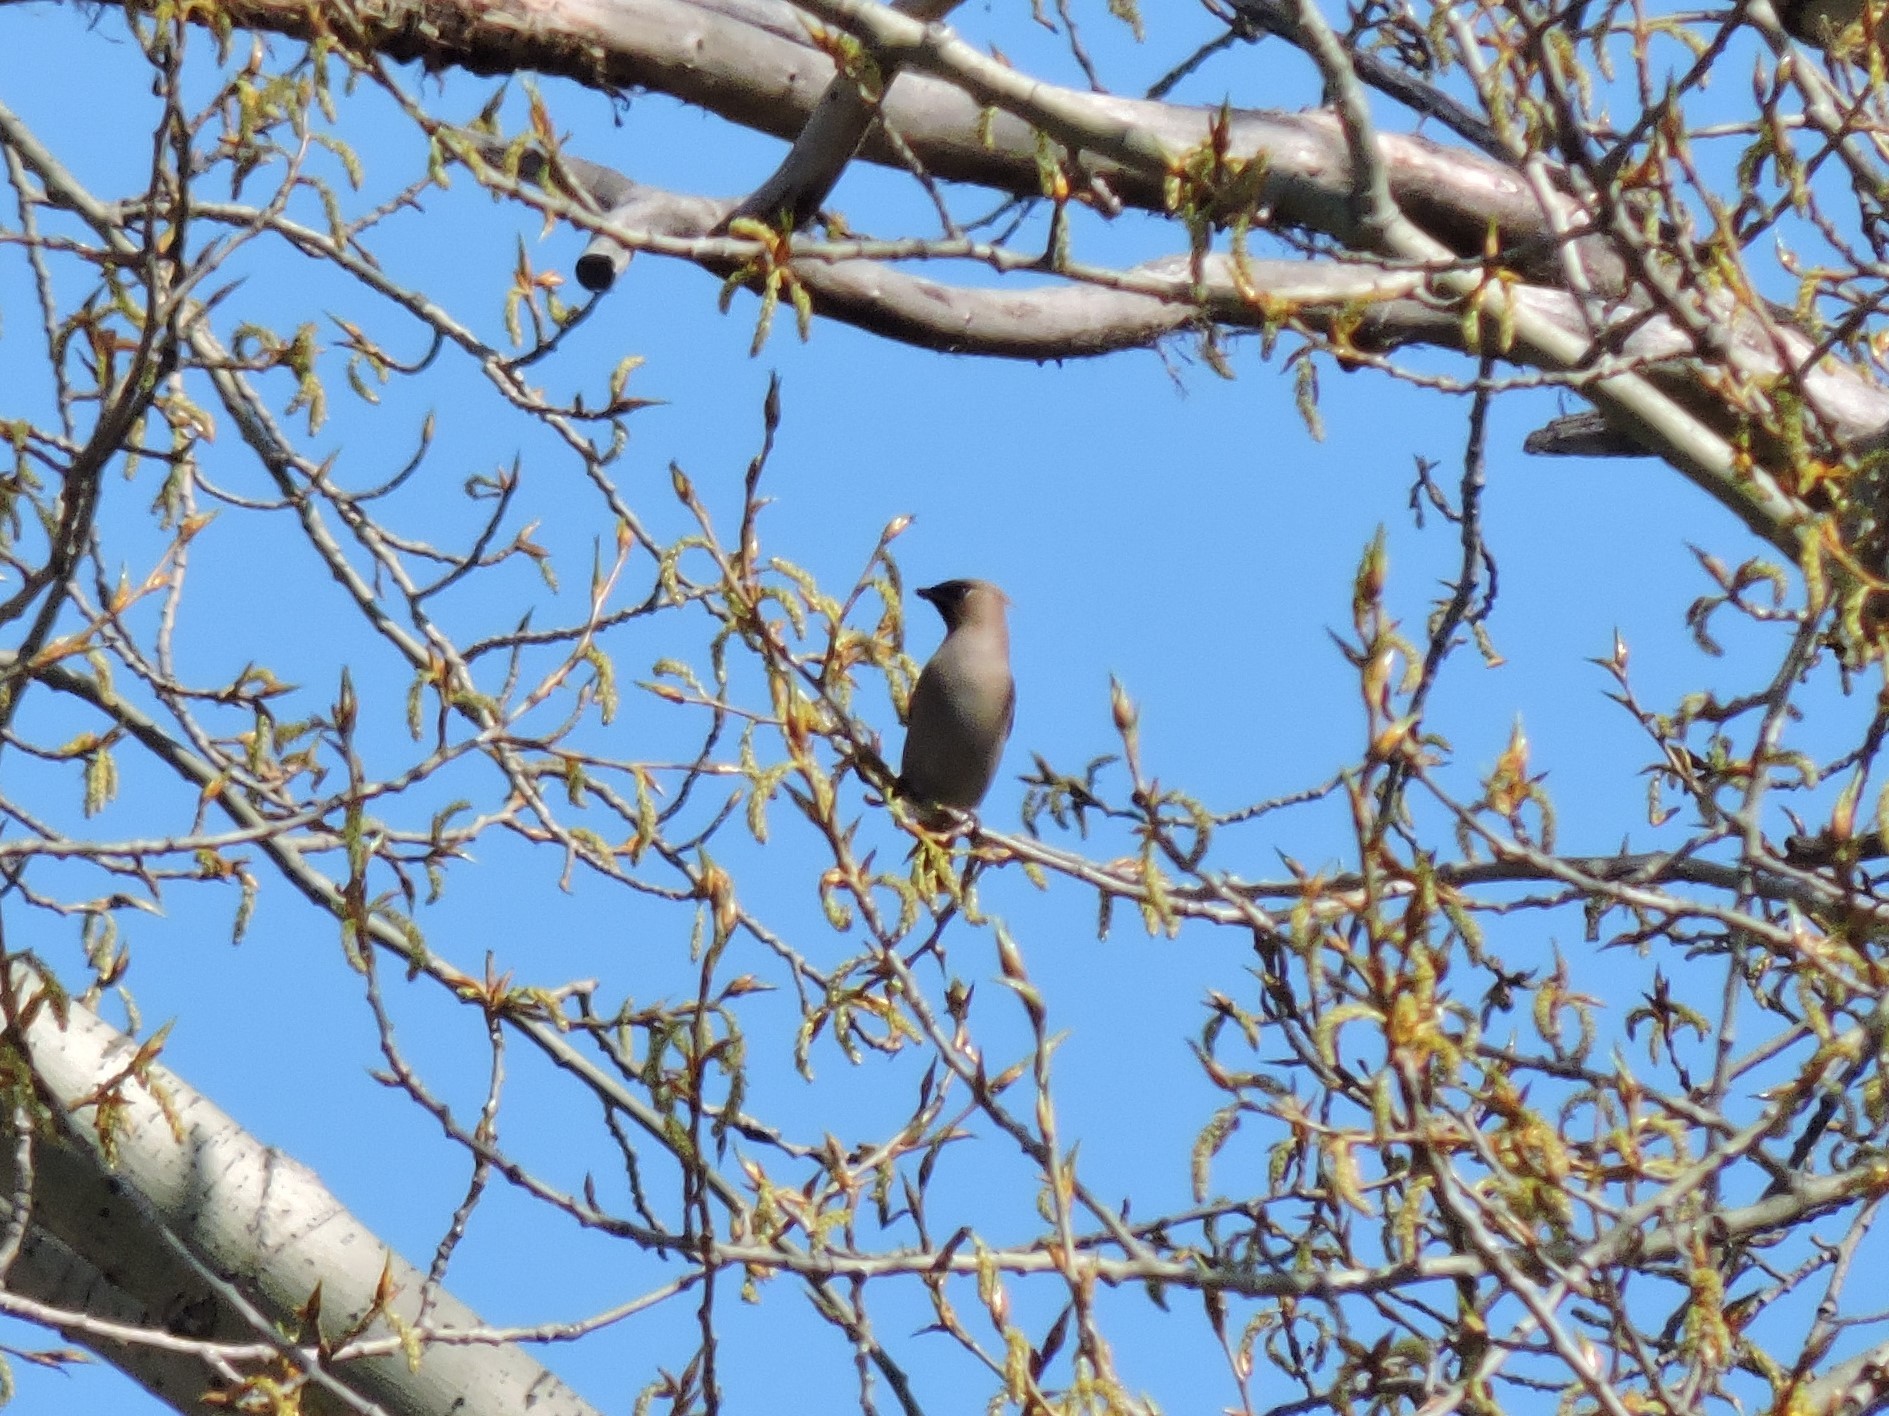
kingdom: Animalia
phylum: Chordata
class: Aves
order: Passeriformes
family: Bombycillidae
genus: Bombycilla
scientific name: Bombycilla garrulus
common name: Bohemian waxwing
